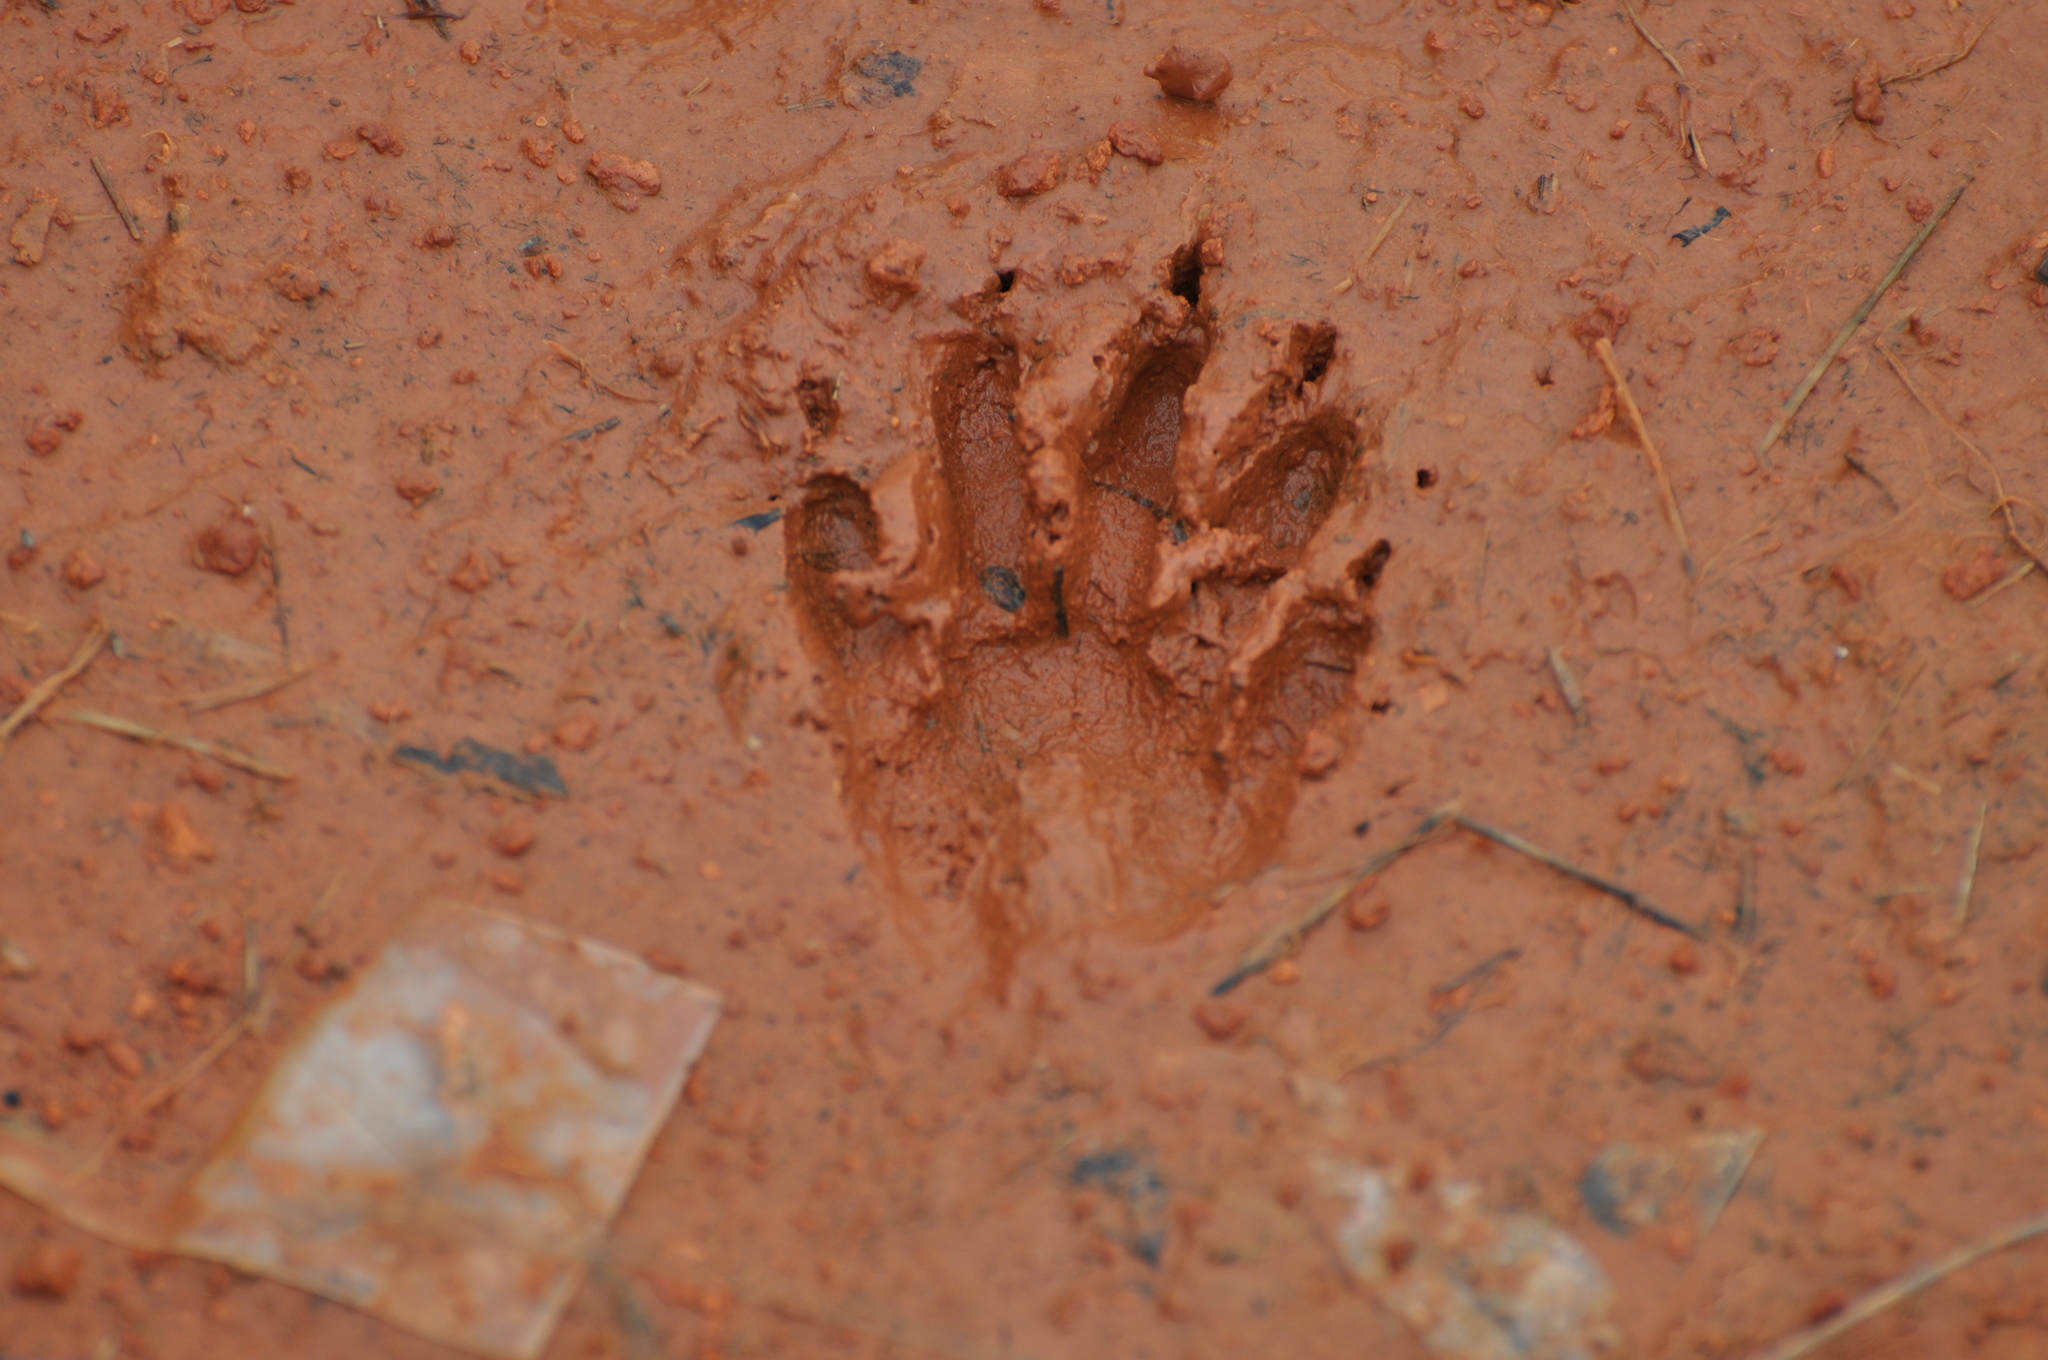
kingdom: Animalia
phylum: Chordata
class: Mammalia
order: Carnivora
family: Procyonidae
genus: Procyon
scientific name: Procyon lotor
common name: Raccoon
